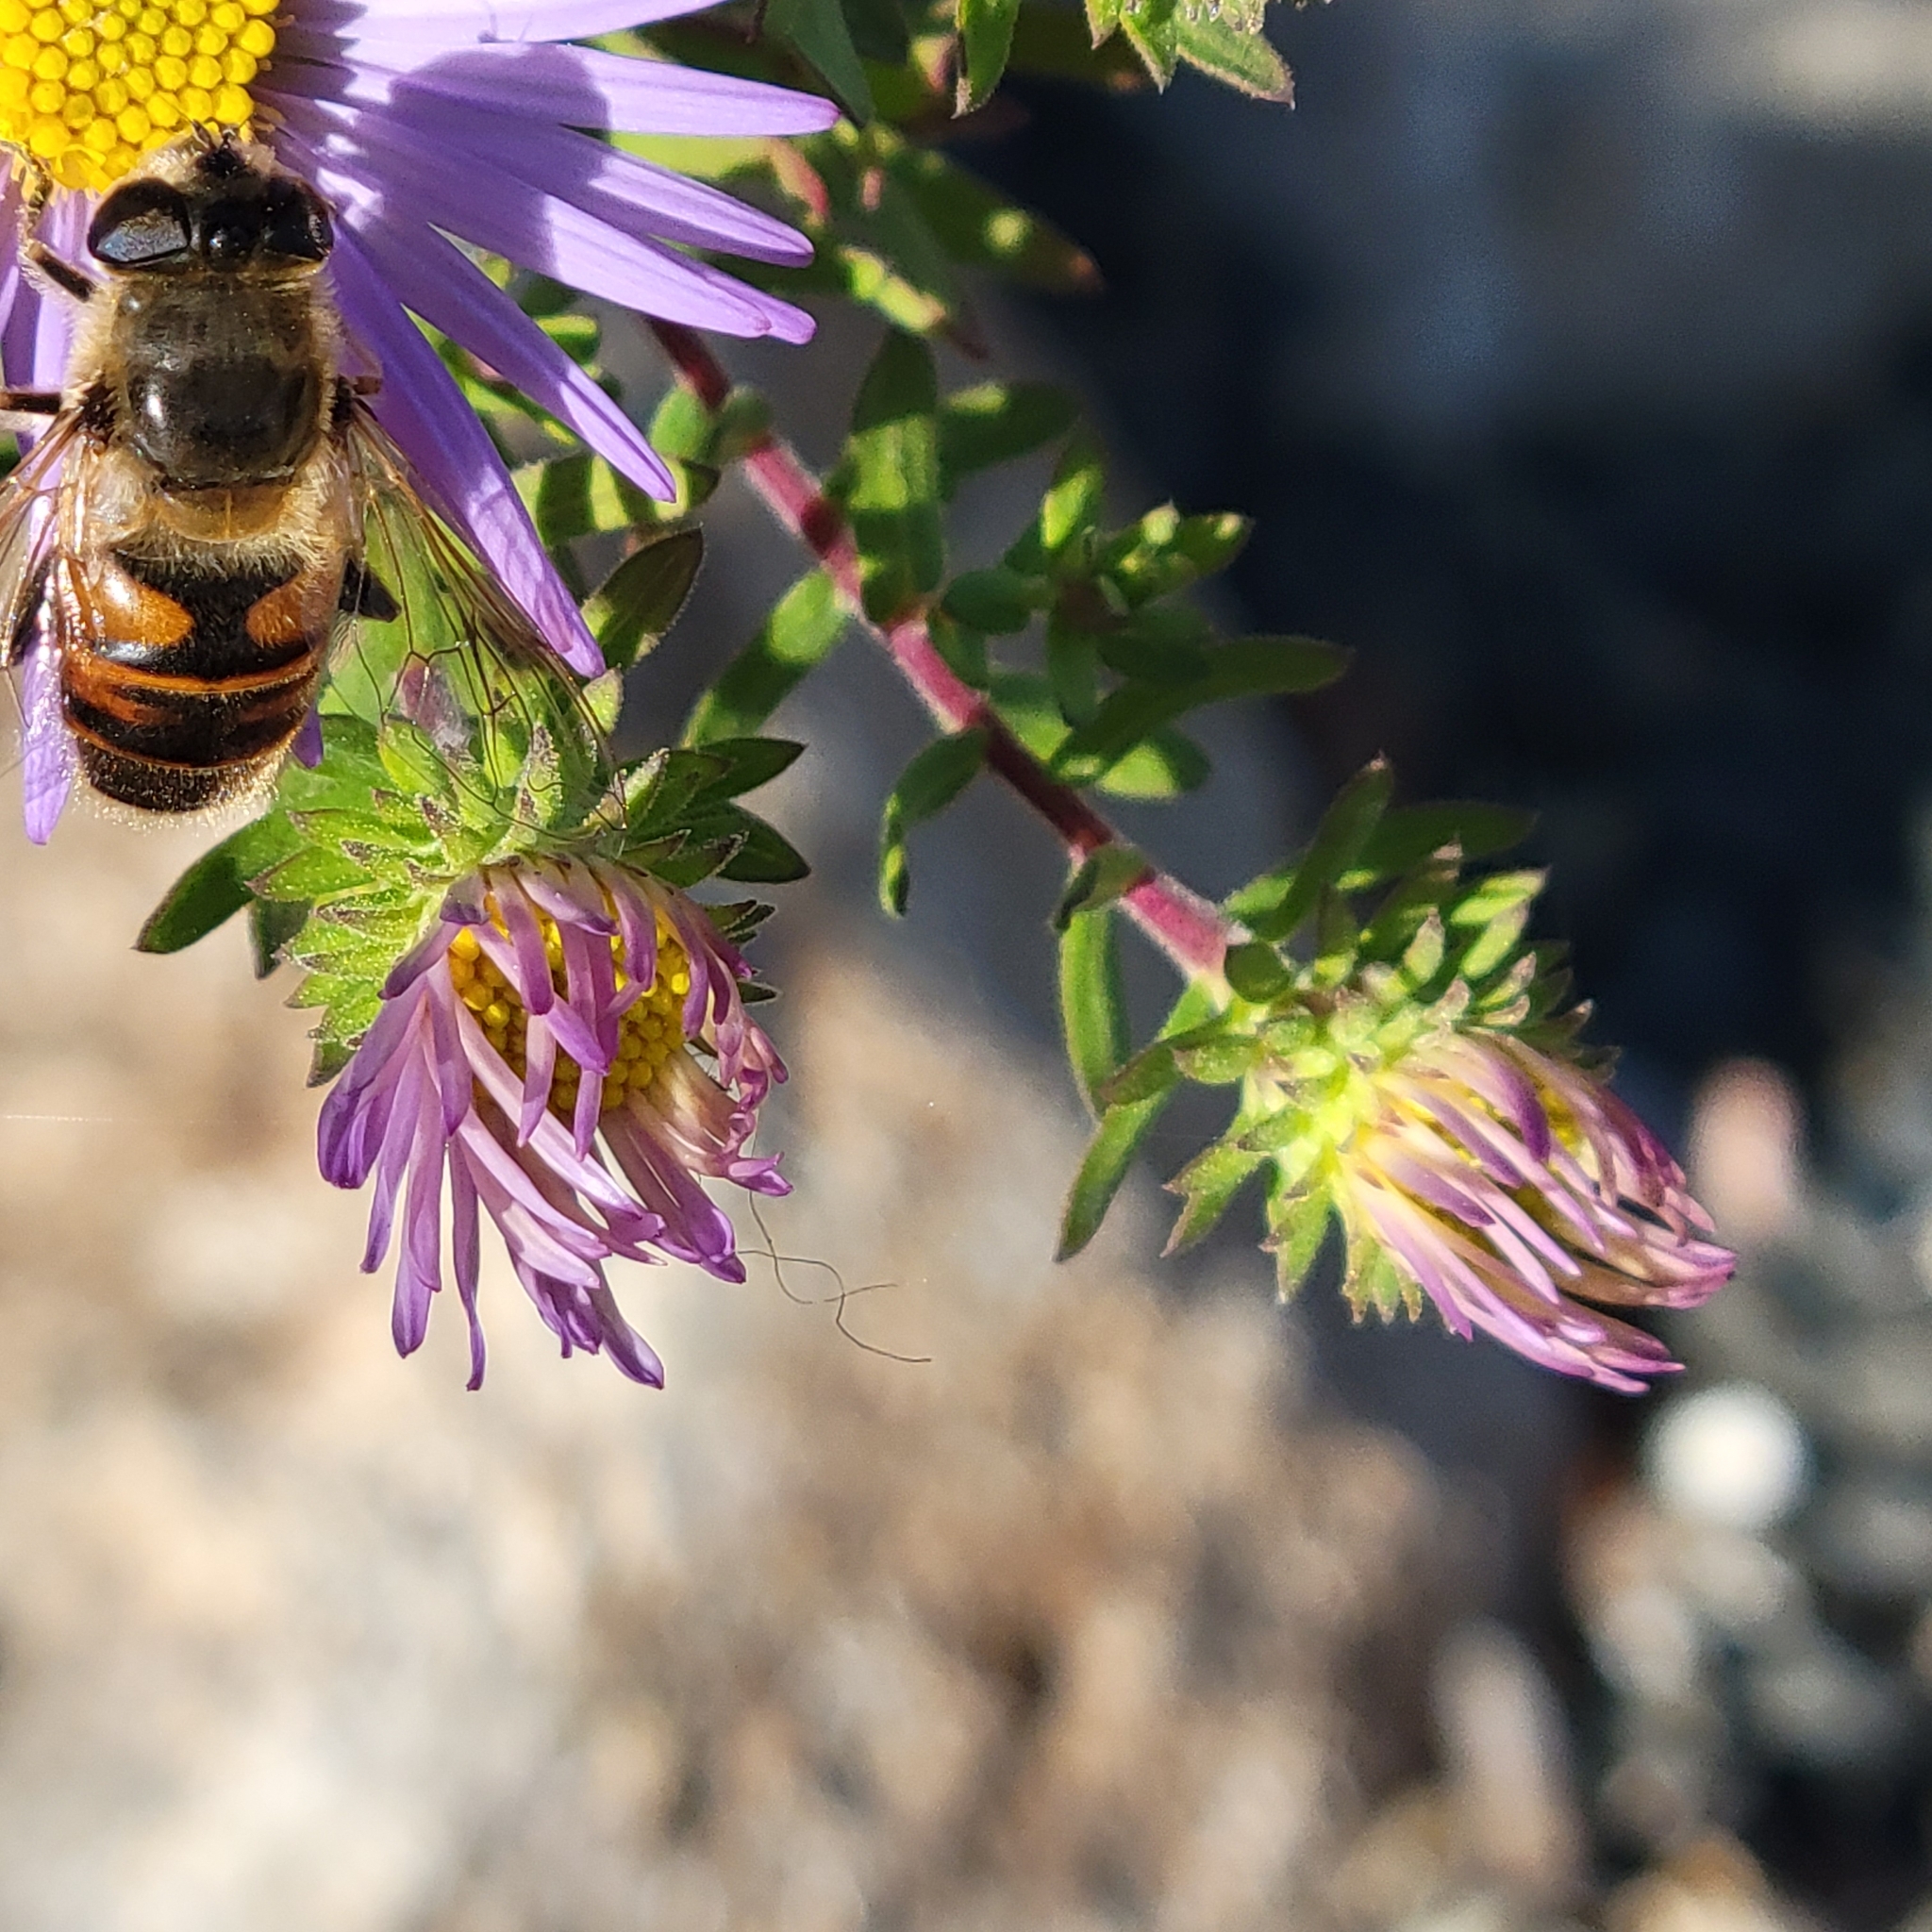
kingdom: Animalia
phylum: Arthropoda
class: Insecta
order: Diptera
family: Syrphidae
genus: Eristalis
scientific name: Eristalis tenax
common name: Drone fly
